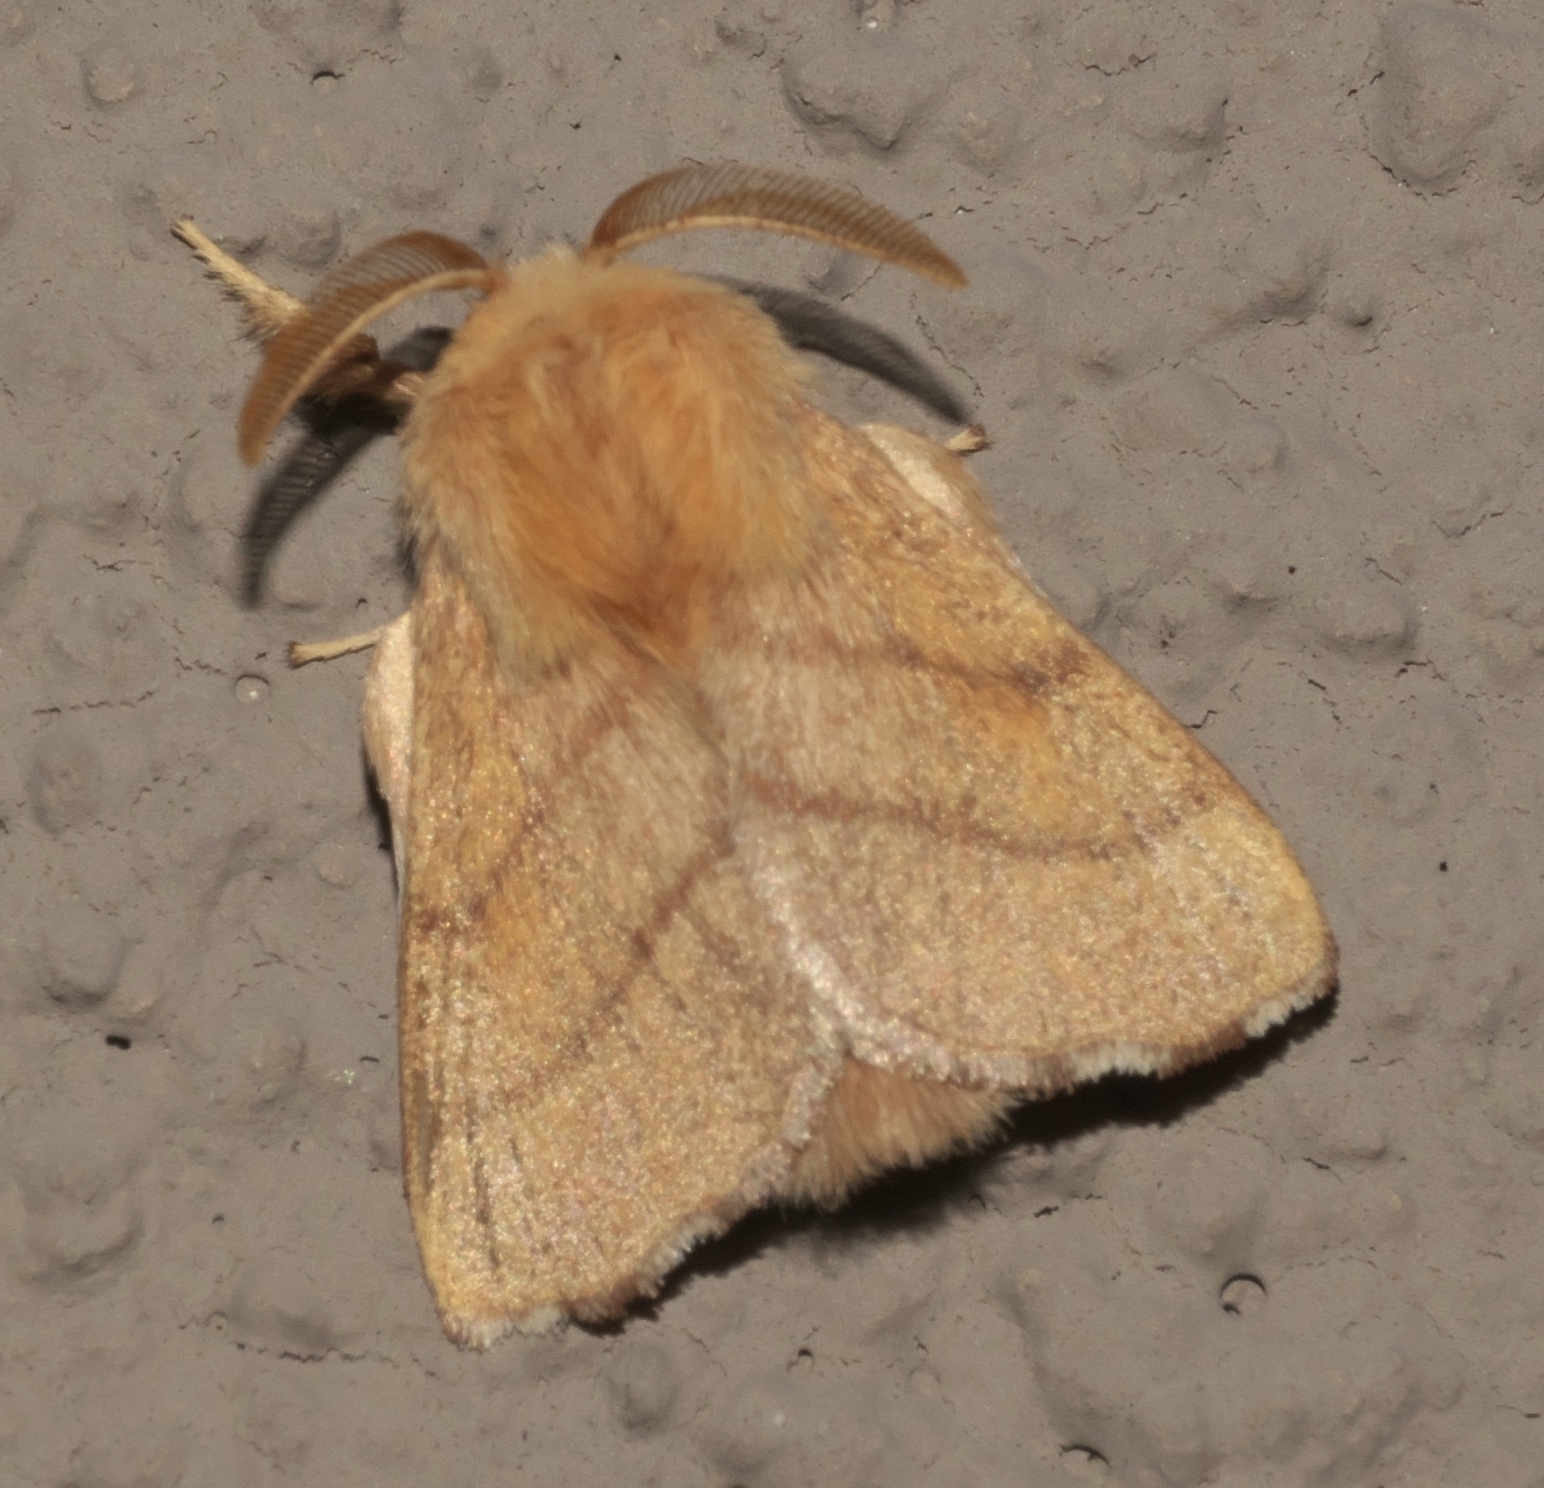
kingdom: Animalia
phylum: Arthropoda
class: Insecta
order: Lepidoptera
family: Lasiocampidae
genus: Malacosoma
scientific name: Malacosoma disstria
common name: Forest tent caterpillar
